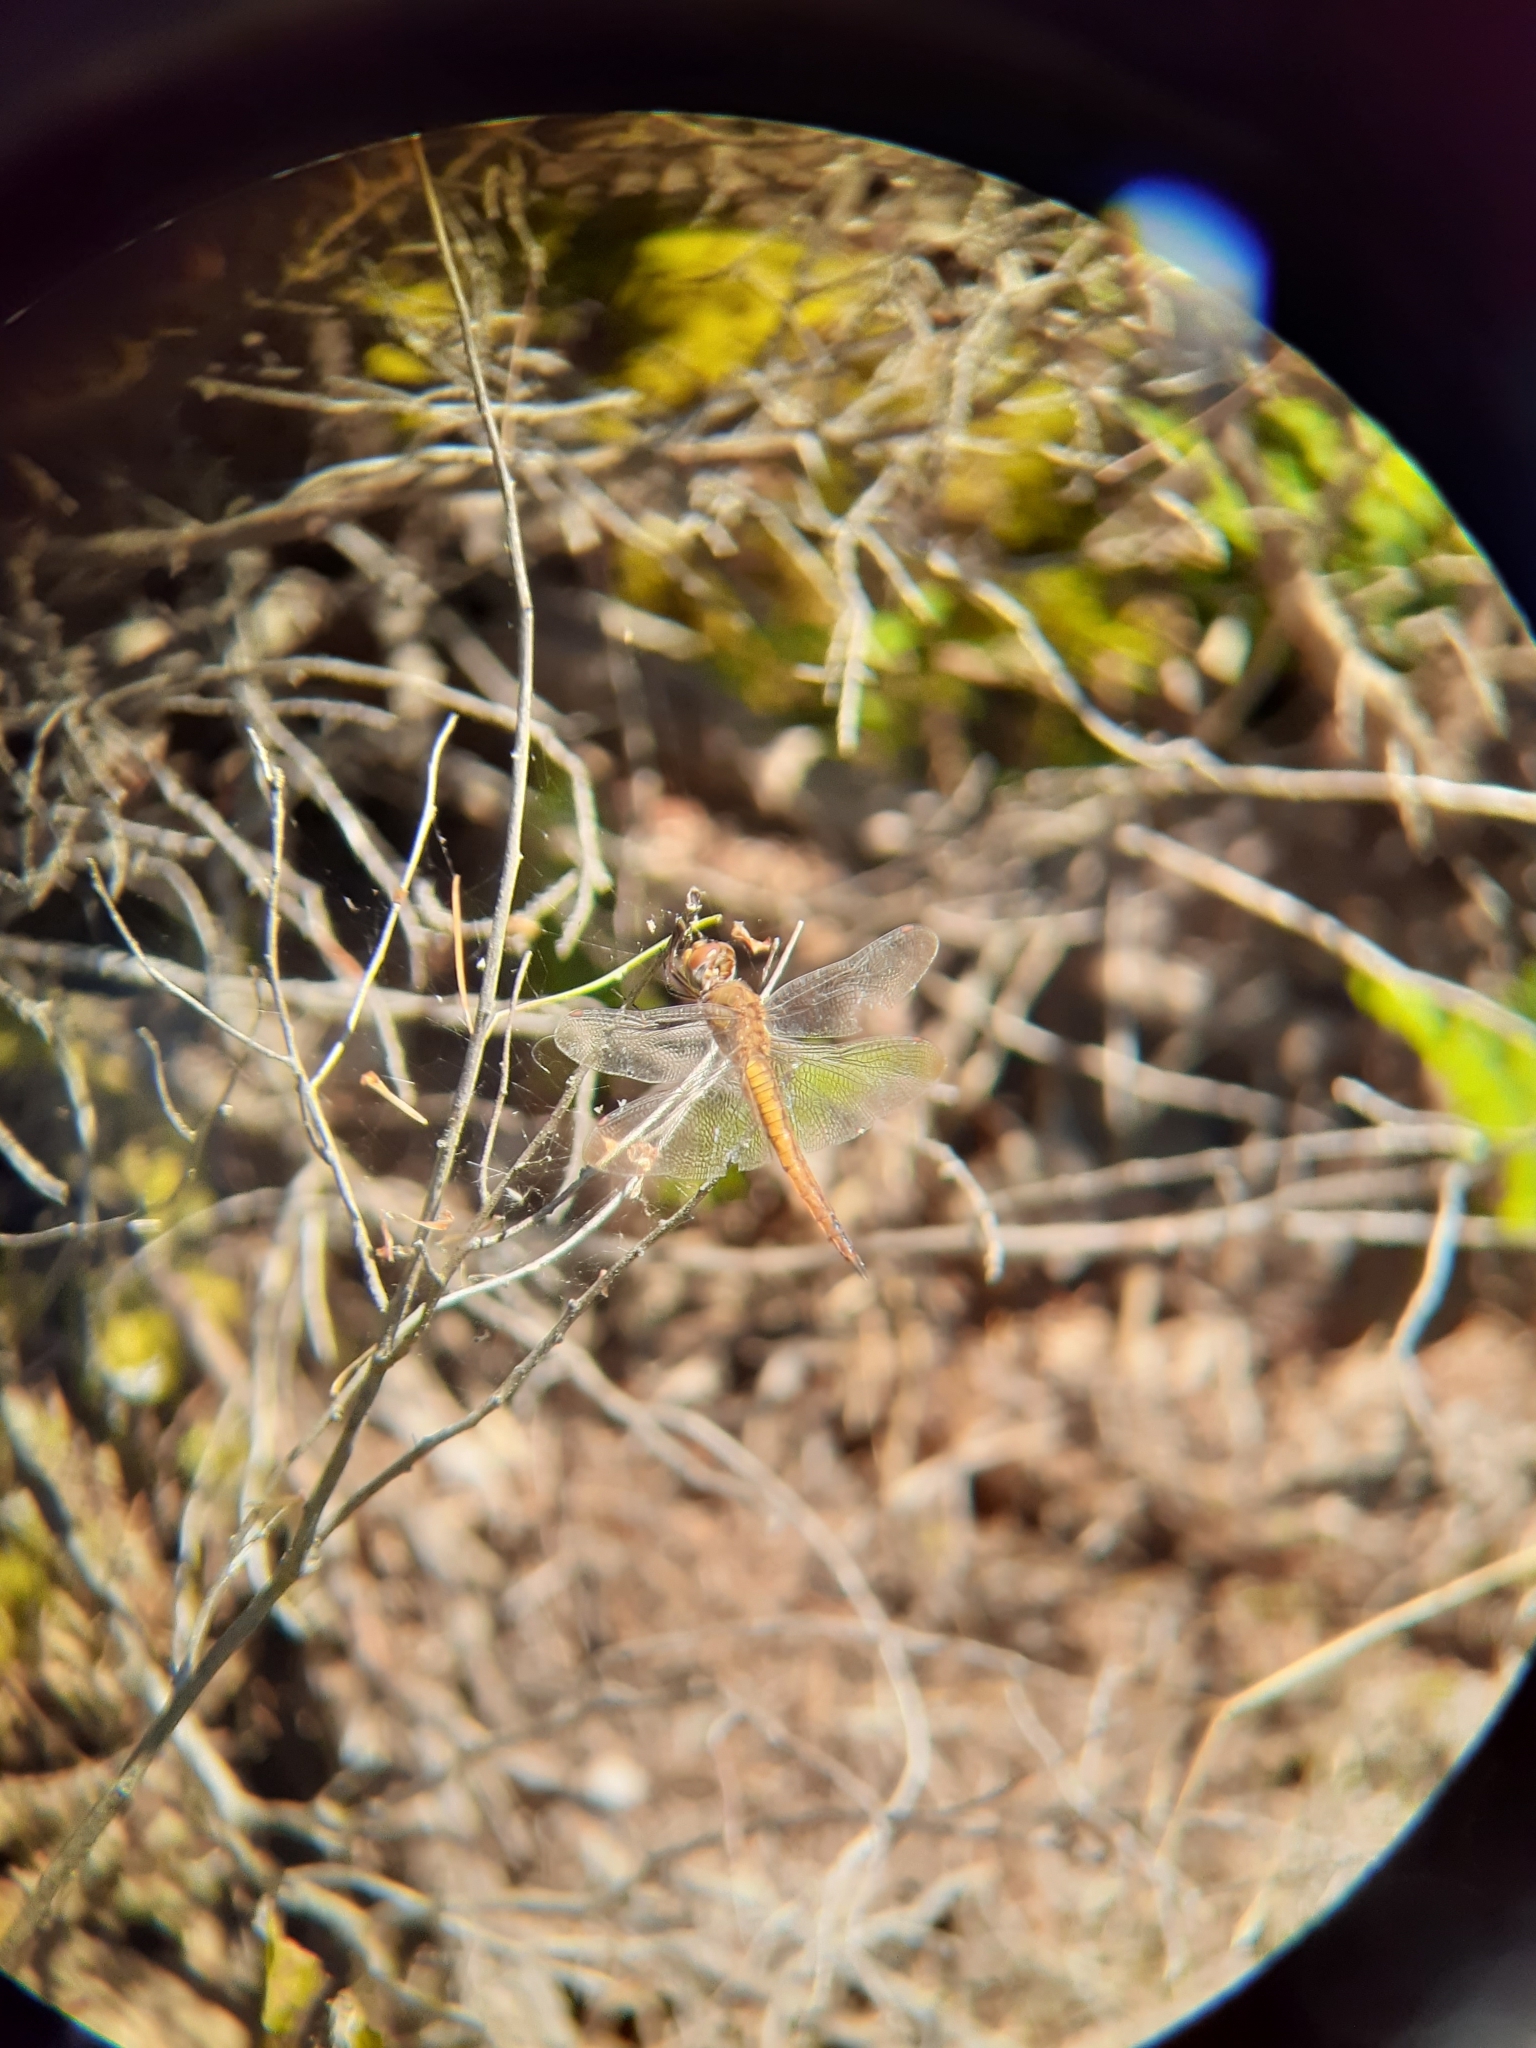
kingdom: Animalia
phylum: Arthropoda
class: Insecta
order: Odonata
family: Libellulidae
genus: Pantala
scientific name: Pantala flavescens
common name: Wandering glider
